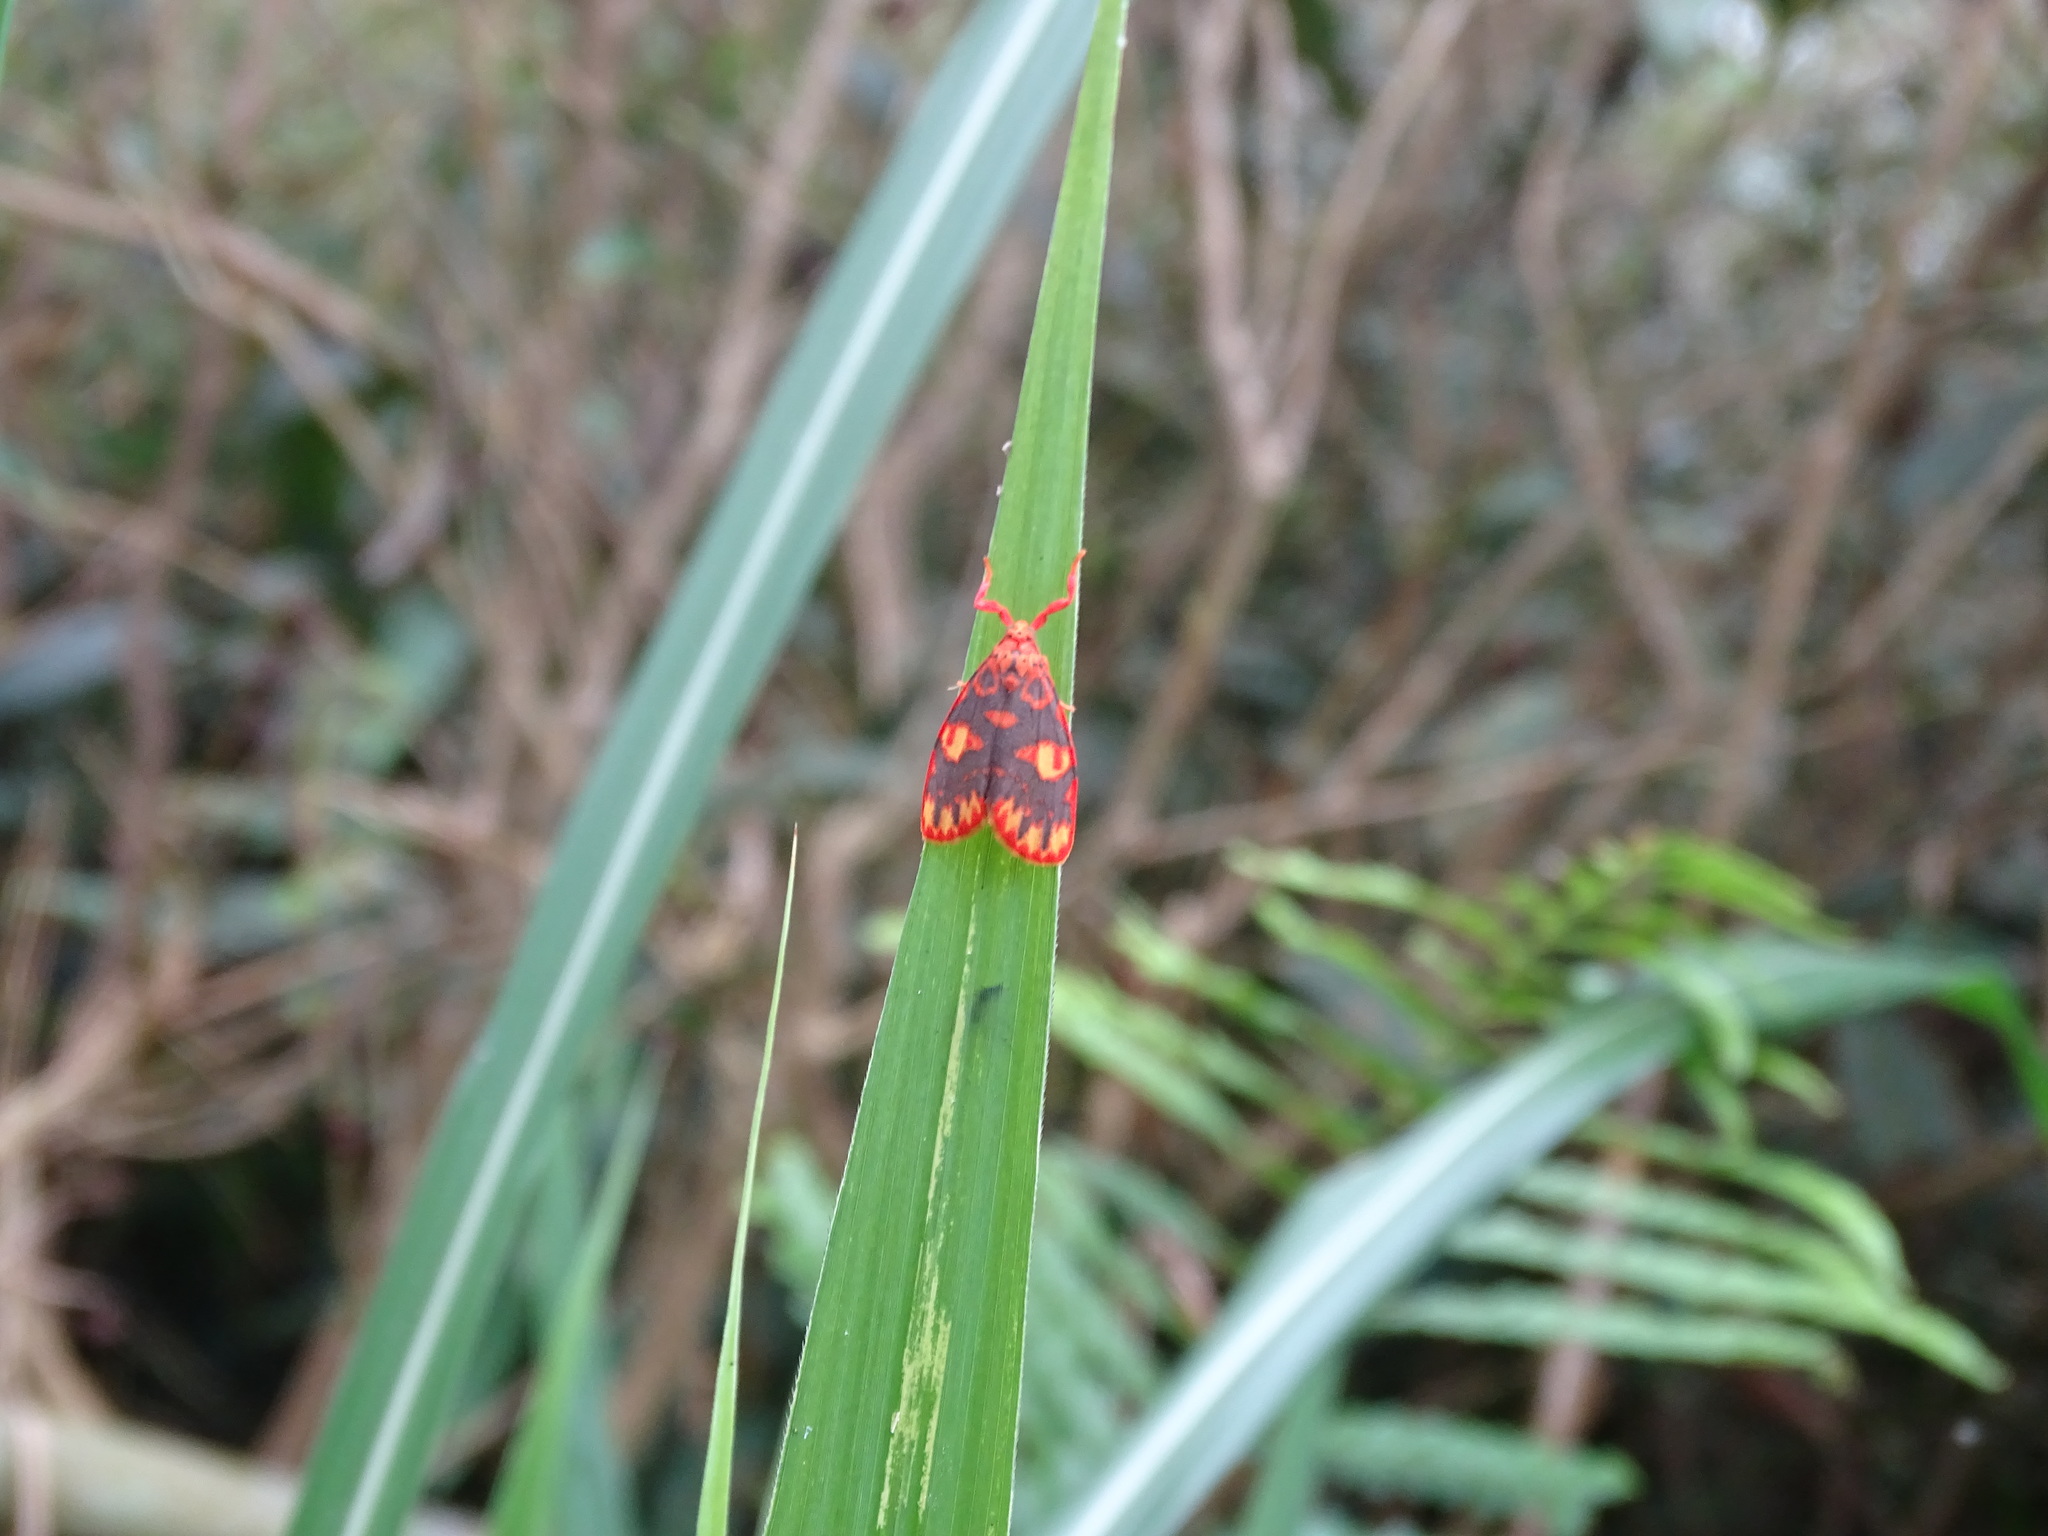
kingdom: Animalia
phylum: Arthropoda
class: Insecta
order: Lepidoptera
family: Erebidae
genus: Floridasura
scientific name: Floridasura tricolor
